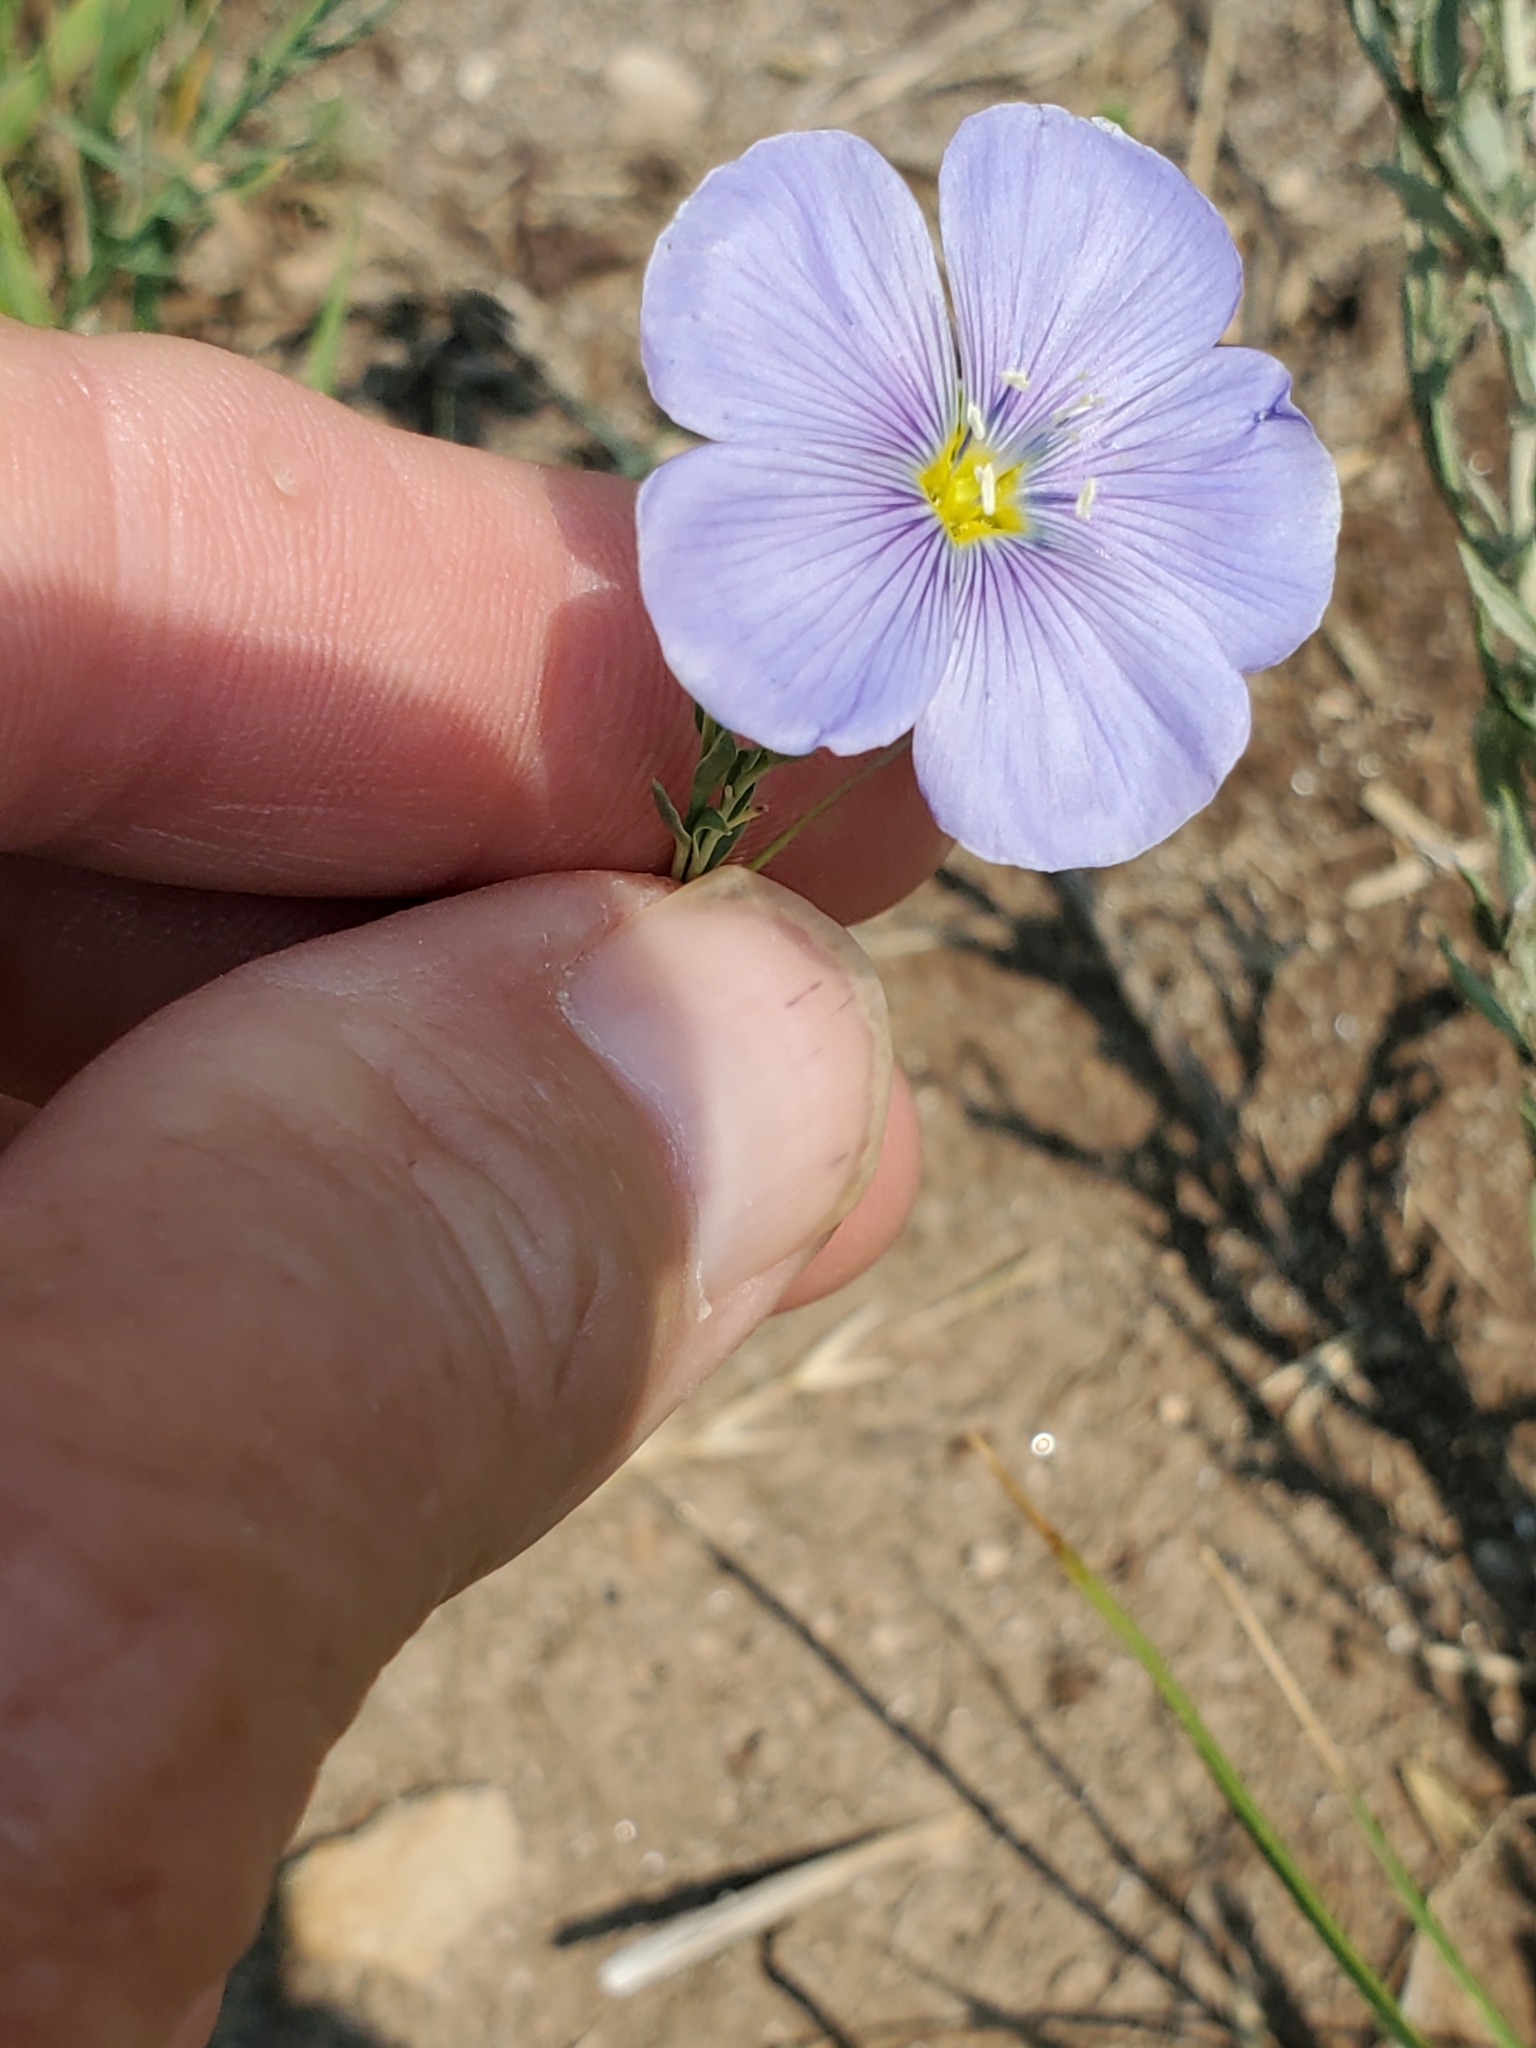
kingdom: Plantae
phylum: Tracheophyta
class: Magnoliopsida
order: Malpighiales
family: Linaceae
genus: Linum
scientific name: Linum lewisii
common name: Prairie flax
